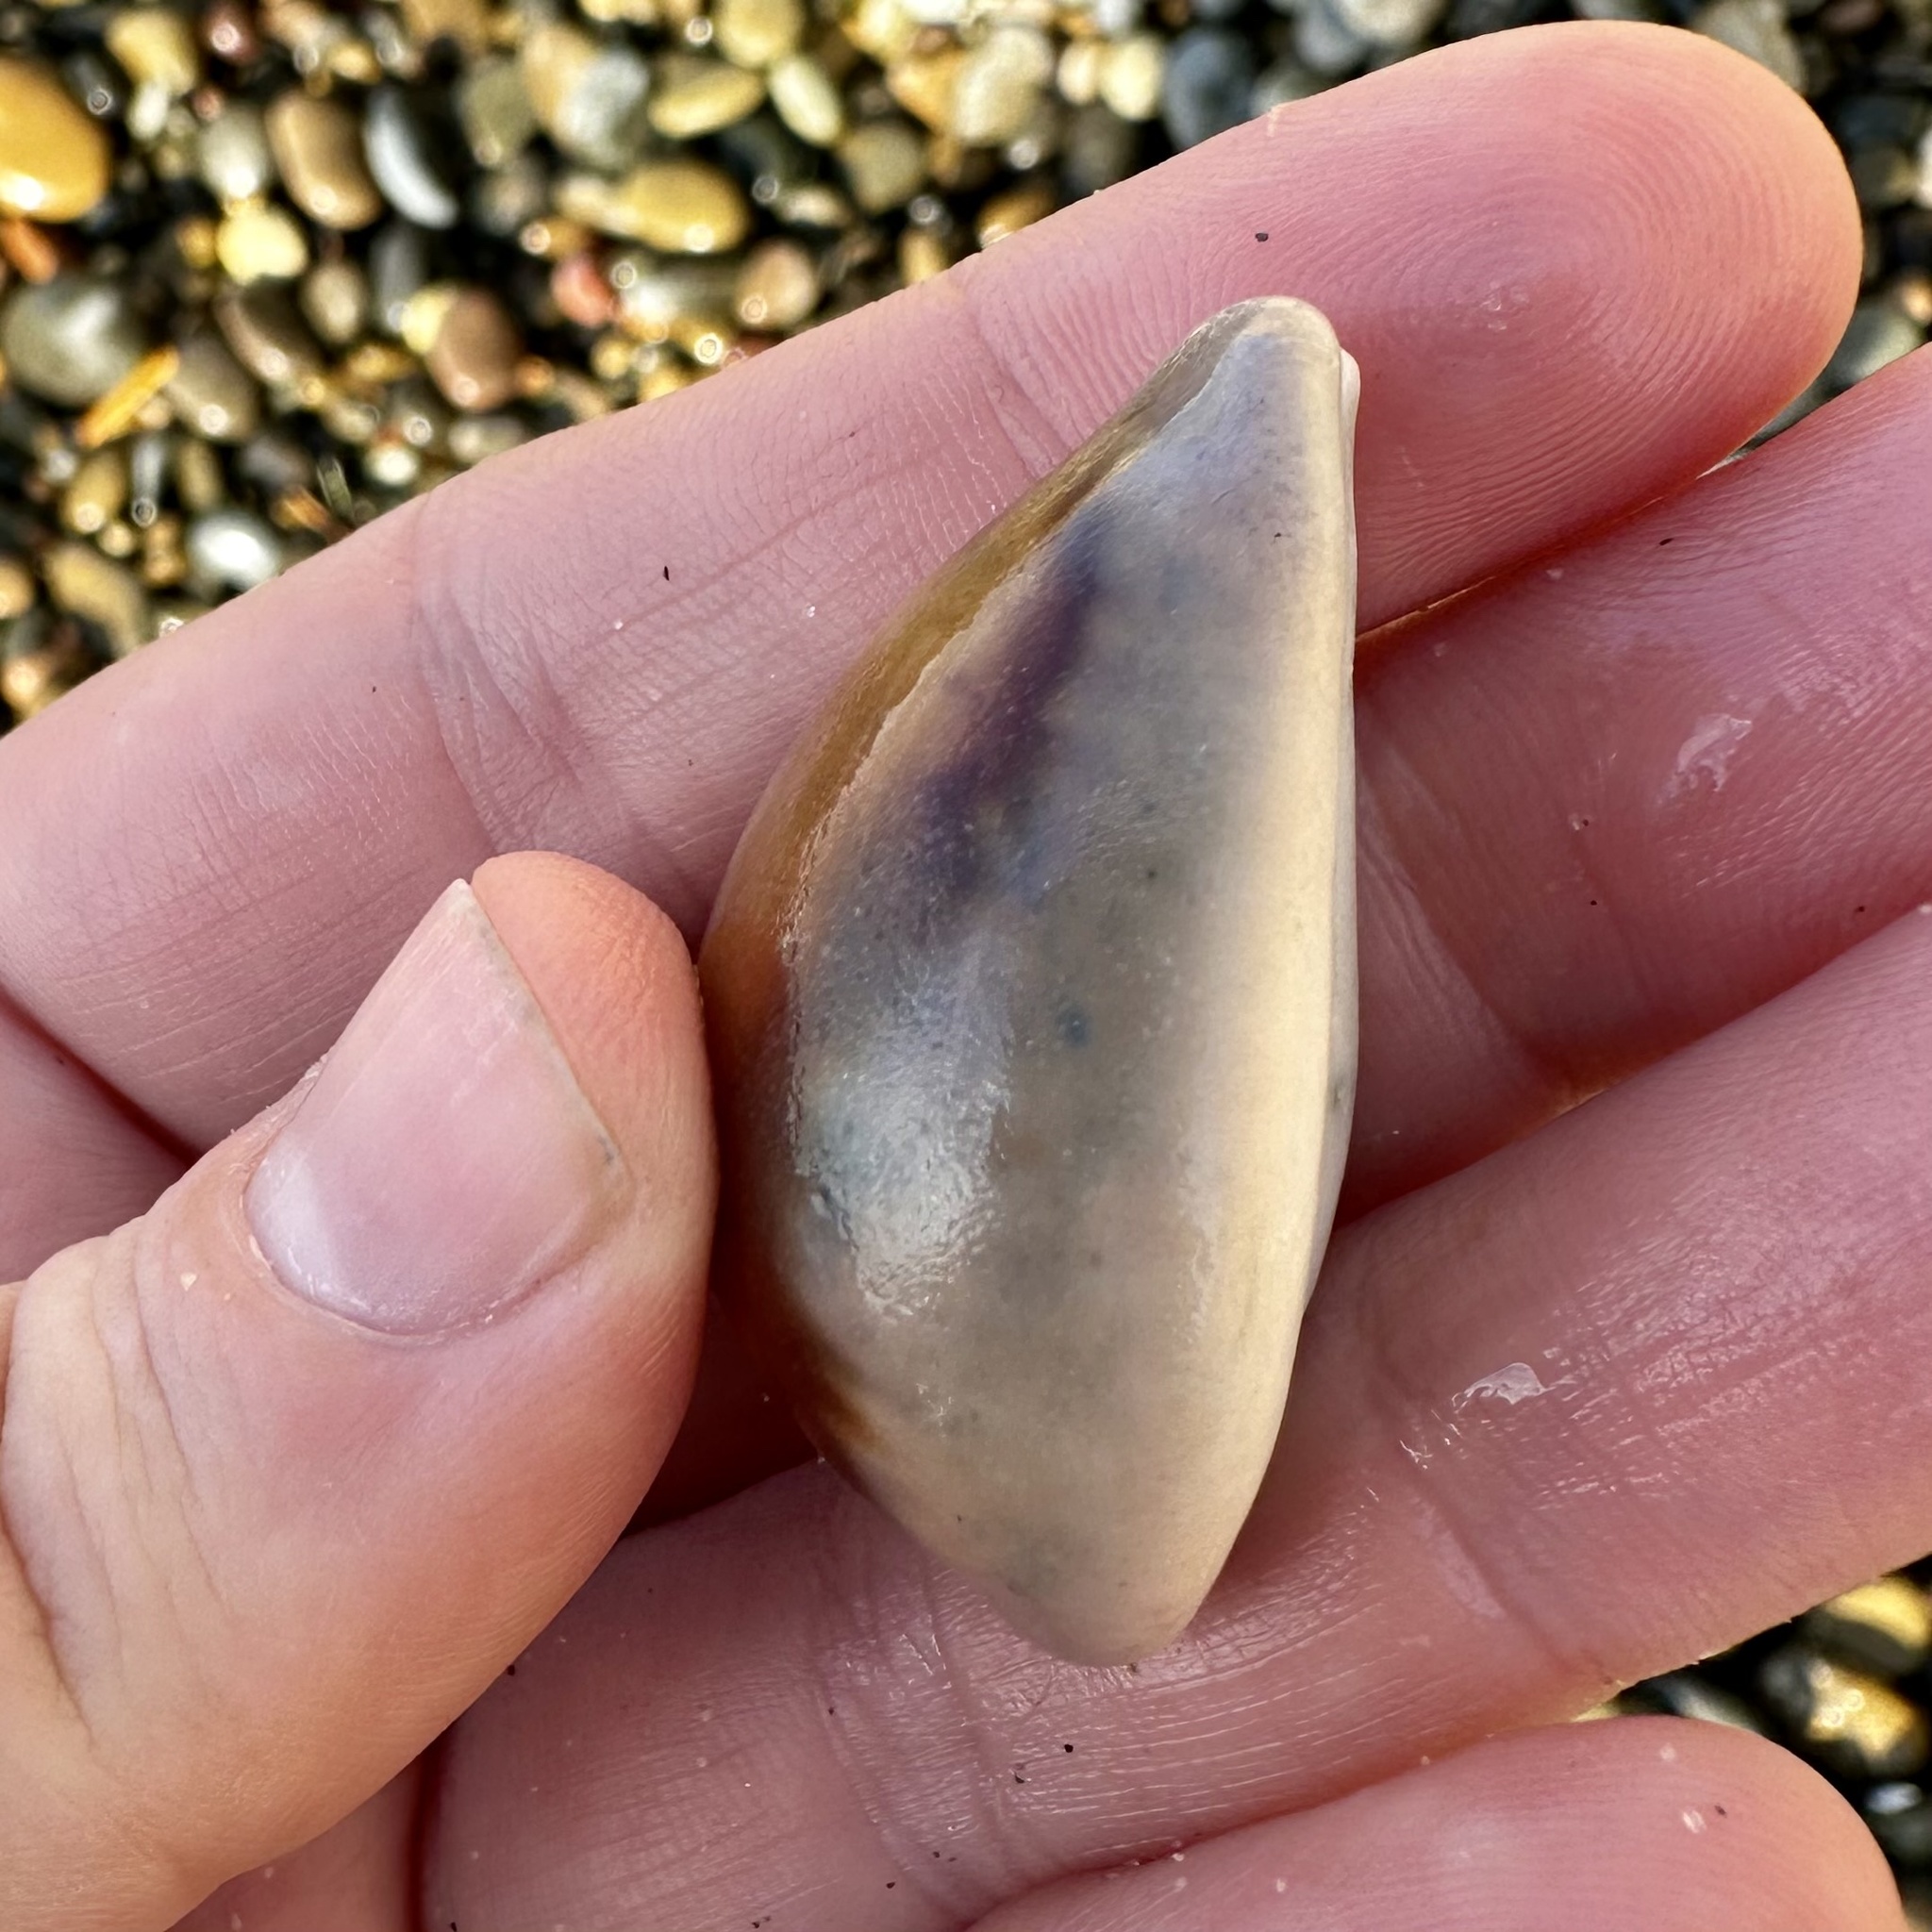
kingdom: Animalia
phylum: Mollusca
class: Gastropoda
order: Littorinimorpha
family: Cypraeidae
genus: Neobernaya
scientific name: Neobernaya spadicea
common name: Chestnut cowrie
